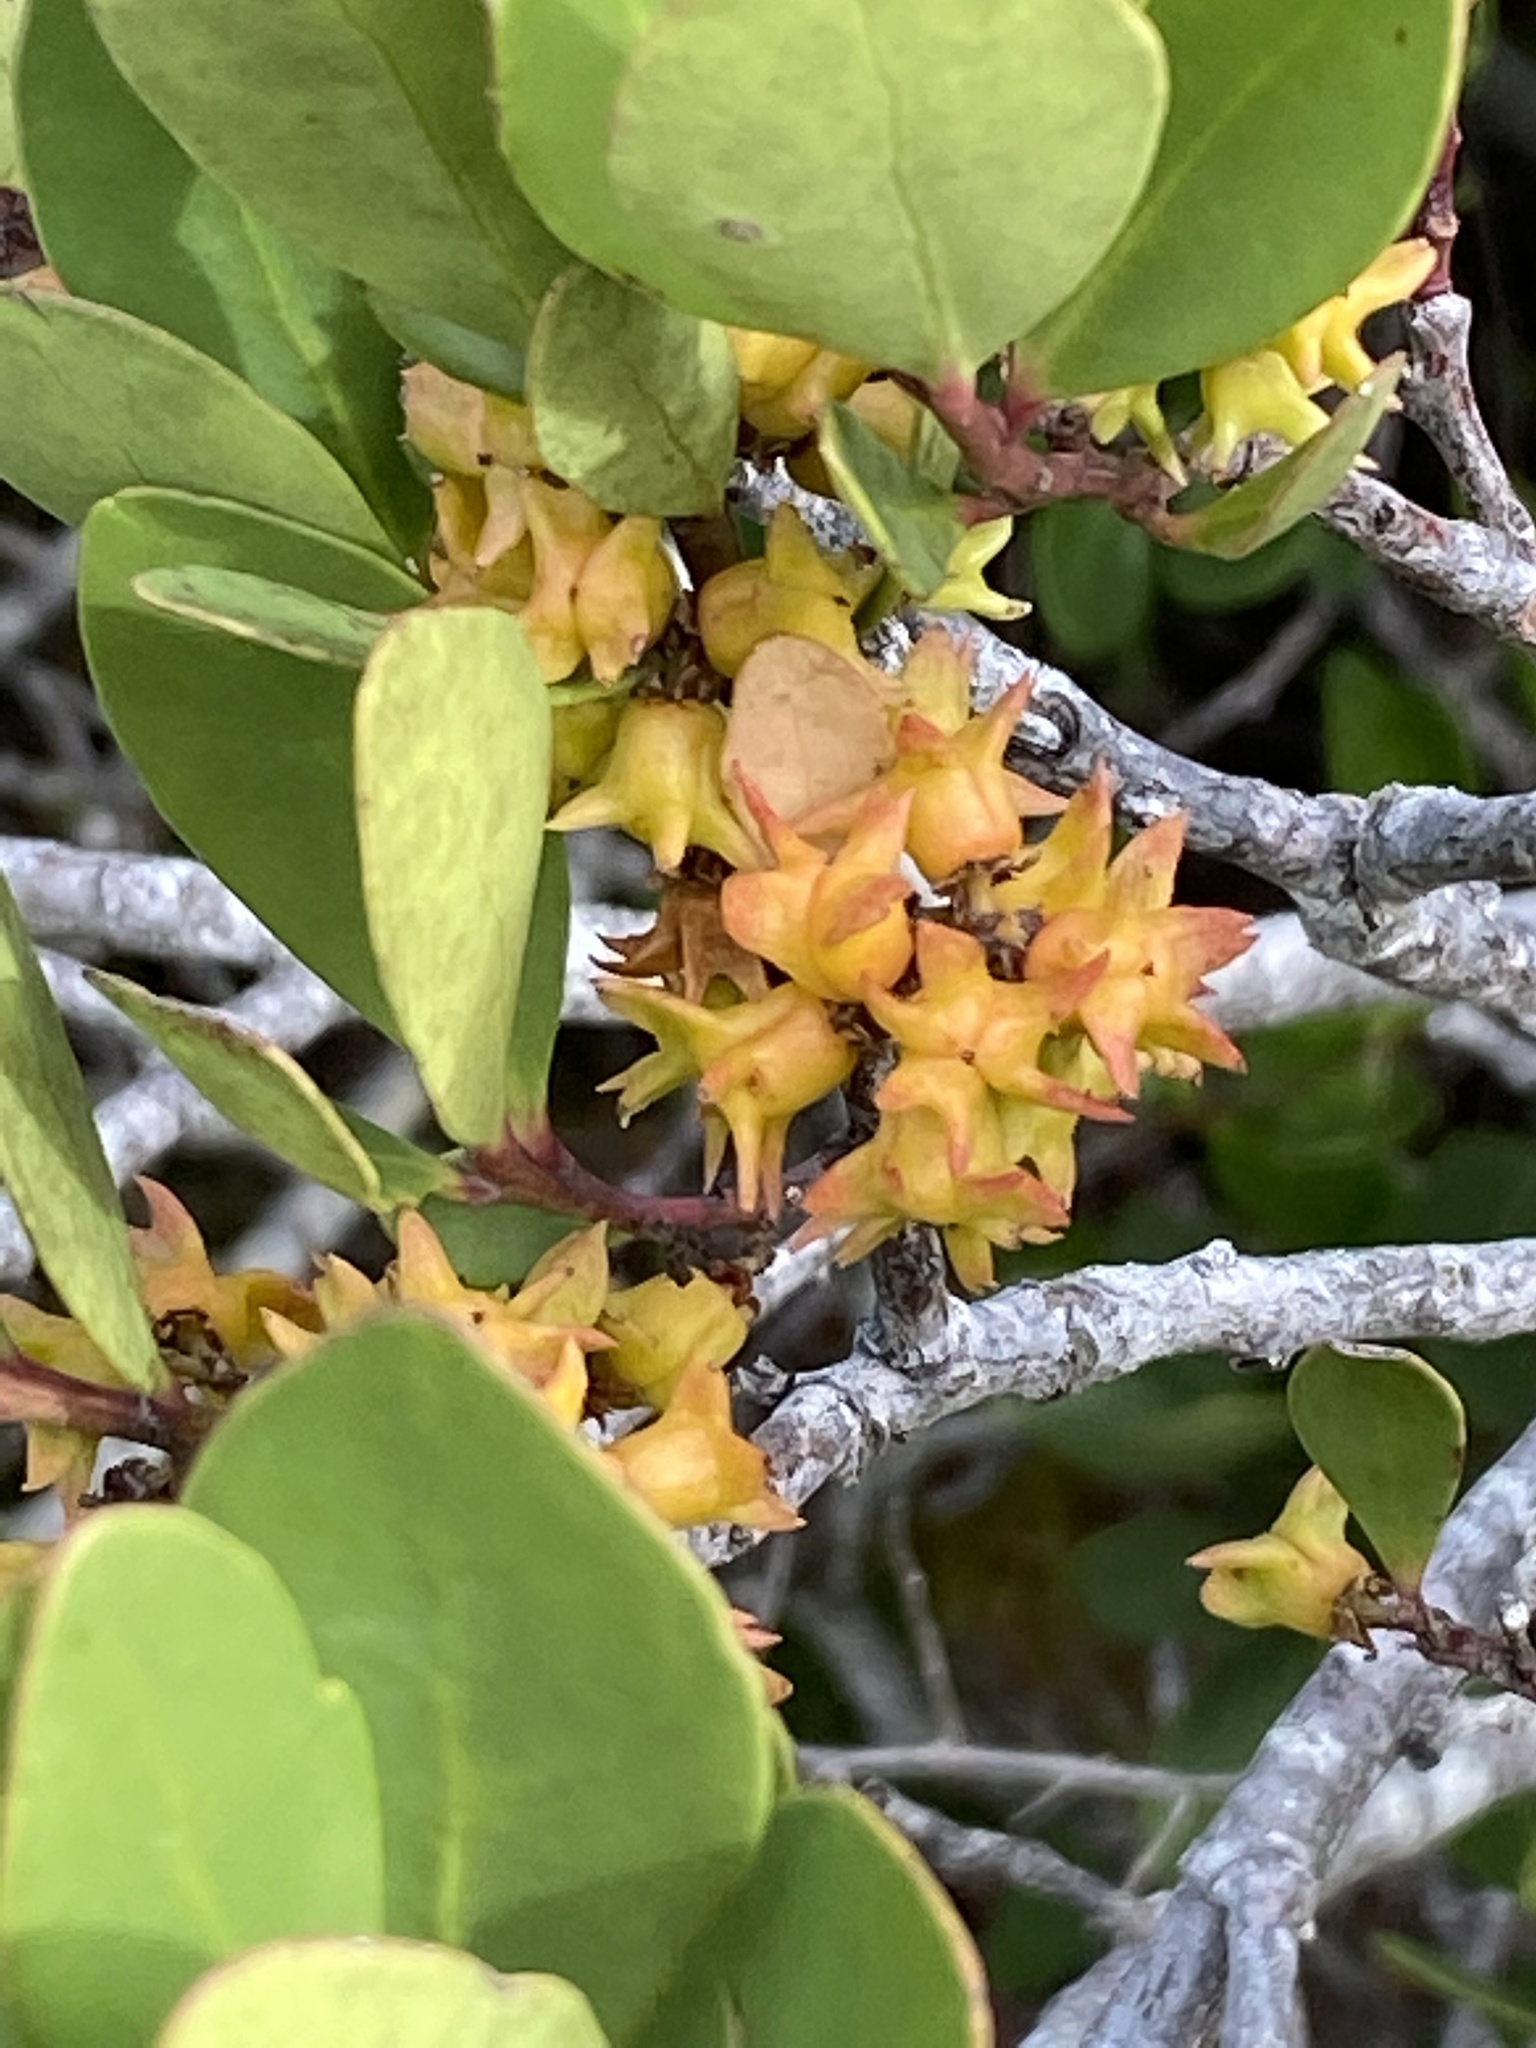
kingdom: Plantae
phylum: Tracheophyta
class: Magnoliopsida
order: Celastrales
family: Celastraceae
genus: Pterocelastrus
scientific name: Pterocelastrus tricuspidatus
